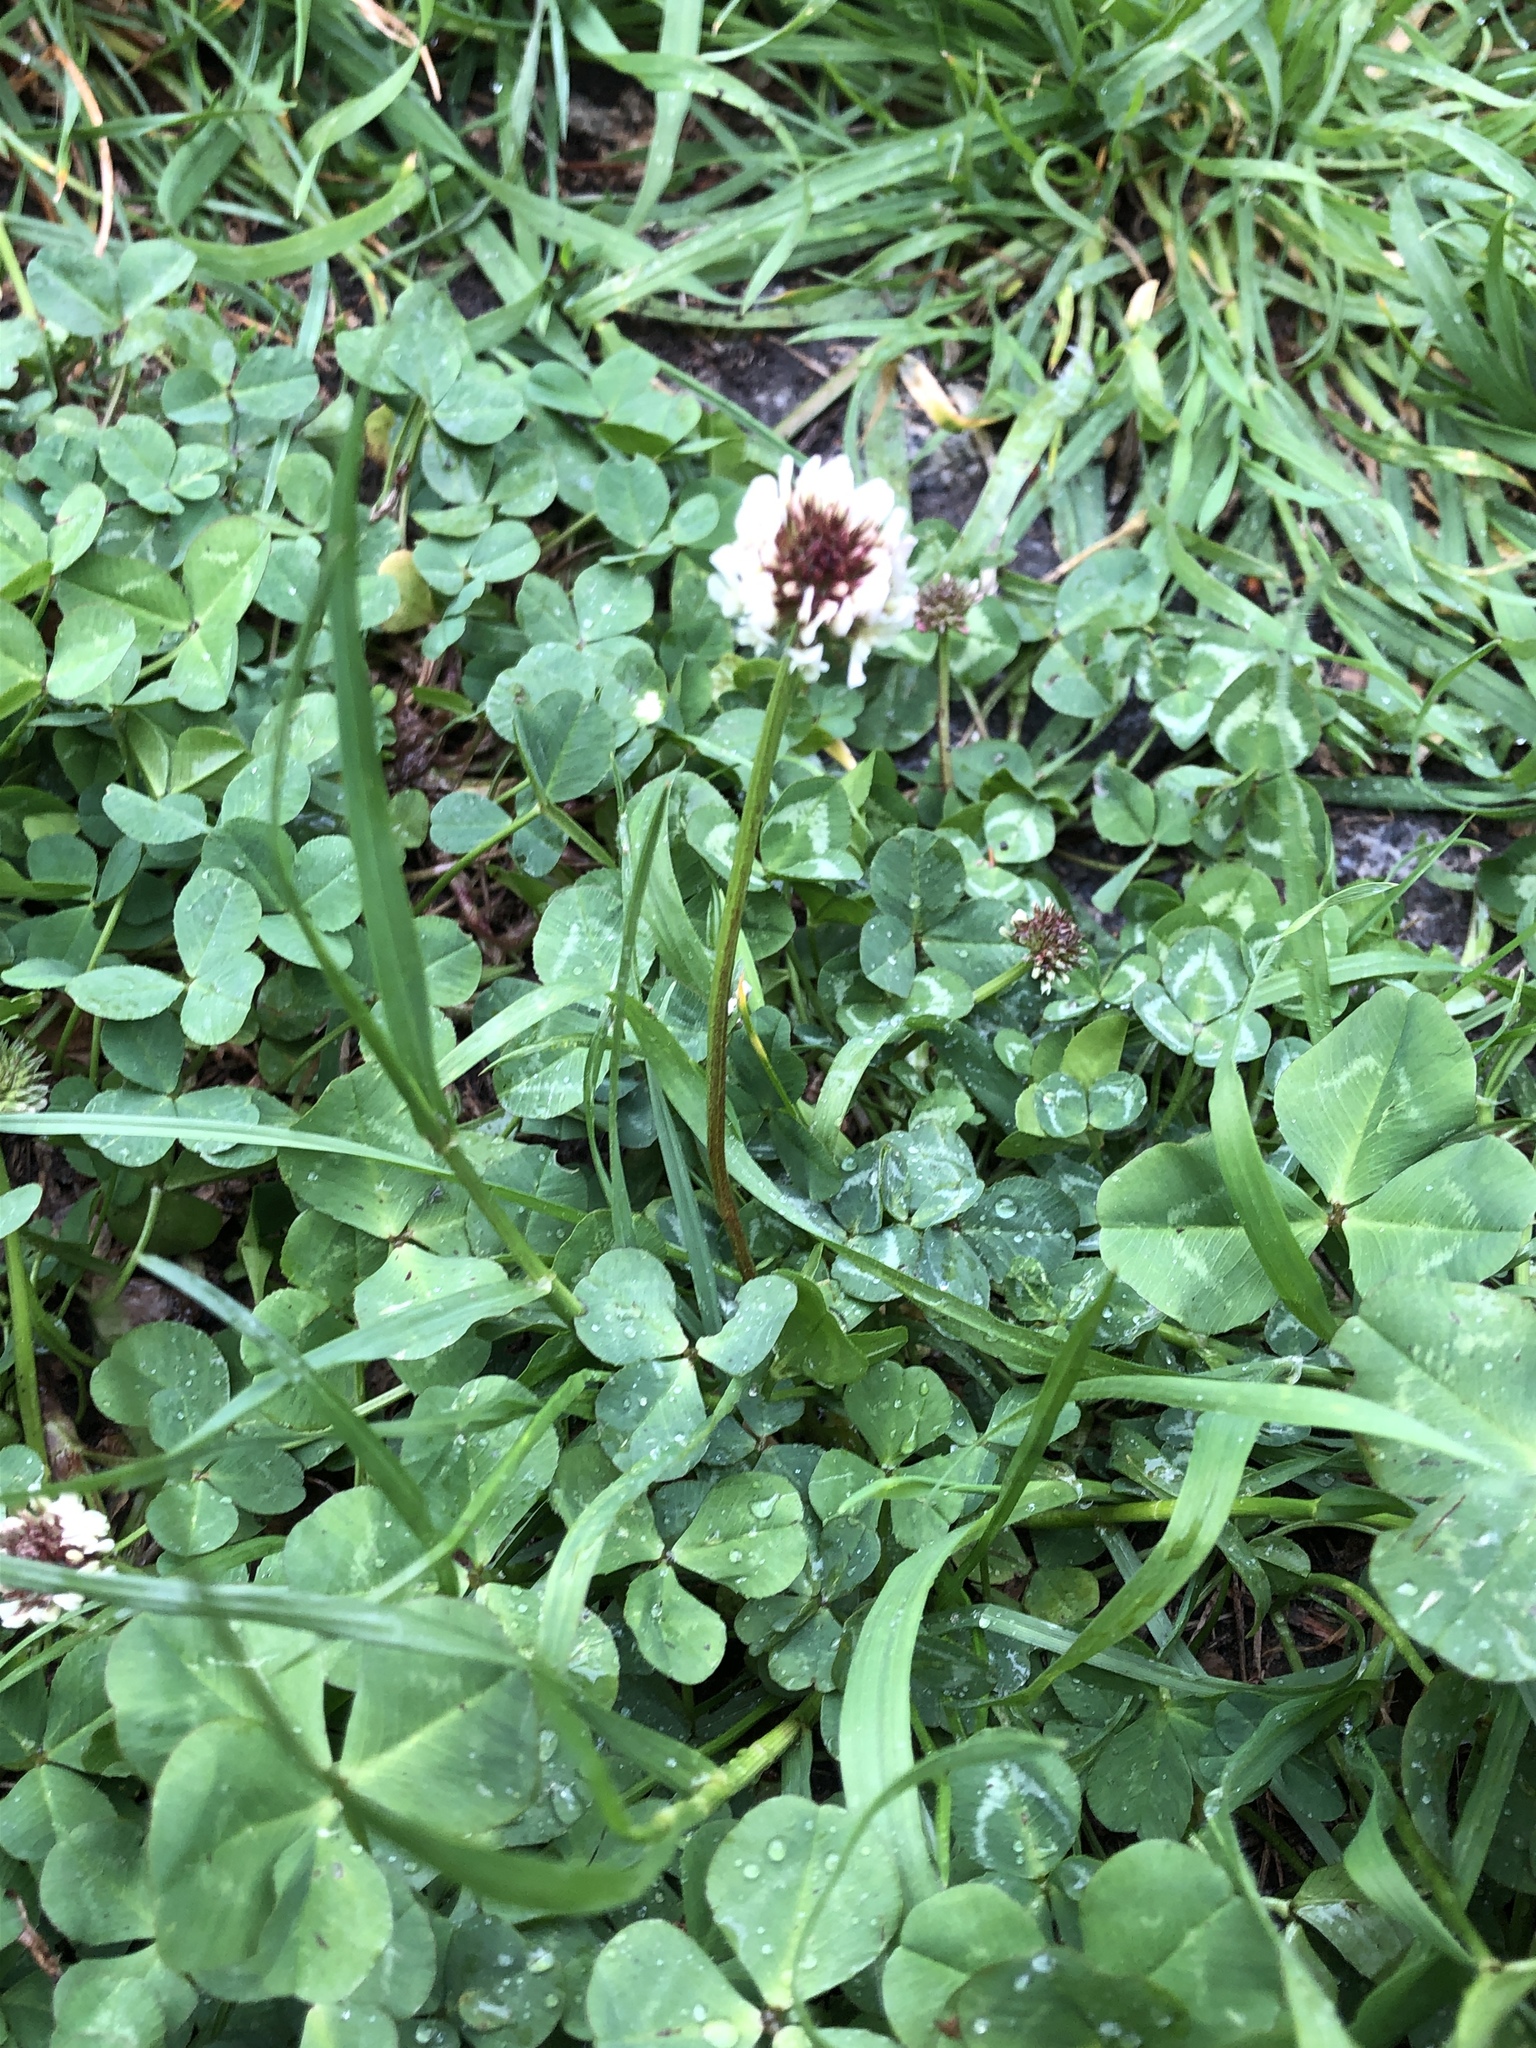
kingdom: Plantae
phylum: Tracheophyta
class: Magnoliopsida
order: Fabales
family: Fabaceae
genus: Trifolium
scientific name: Trifolium repens
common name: White clover
